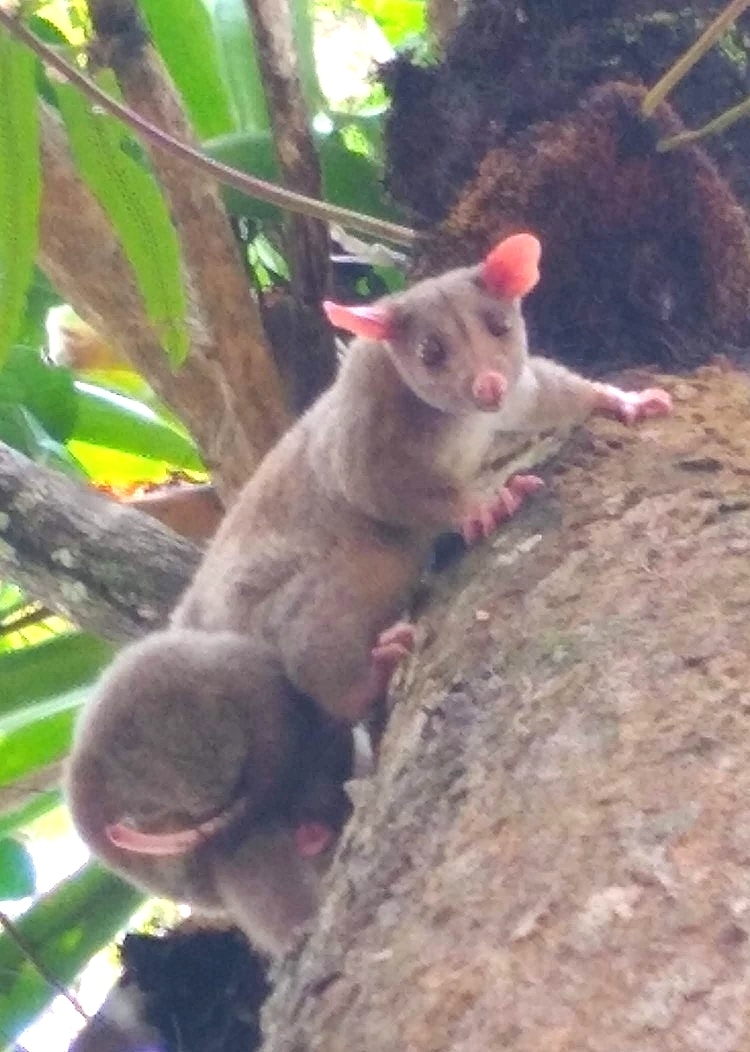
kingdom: Animalia
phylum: Chordata
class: Mammalia
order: Didelphimorphia
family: Didelphidae
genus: Caluromys
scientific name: Caluromys derbianus
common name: Derby's woolly opossum
